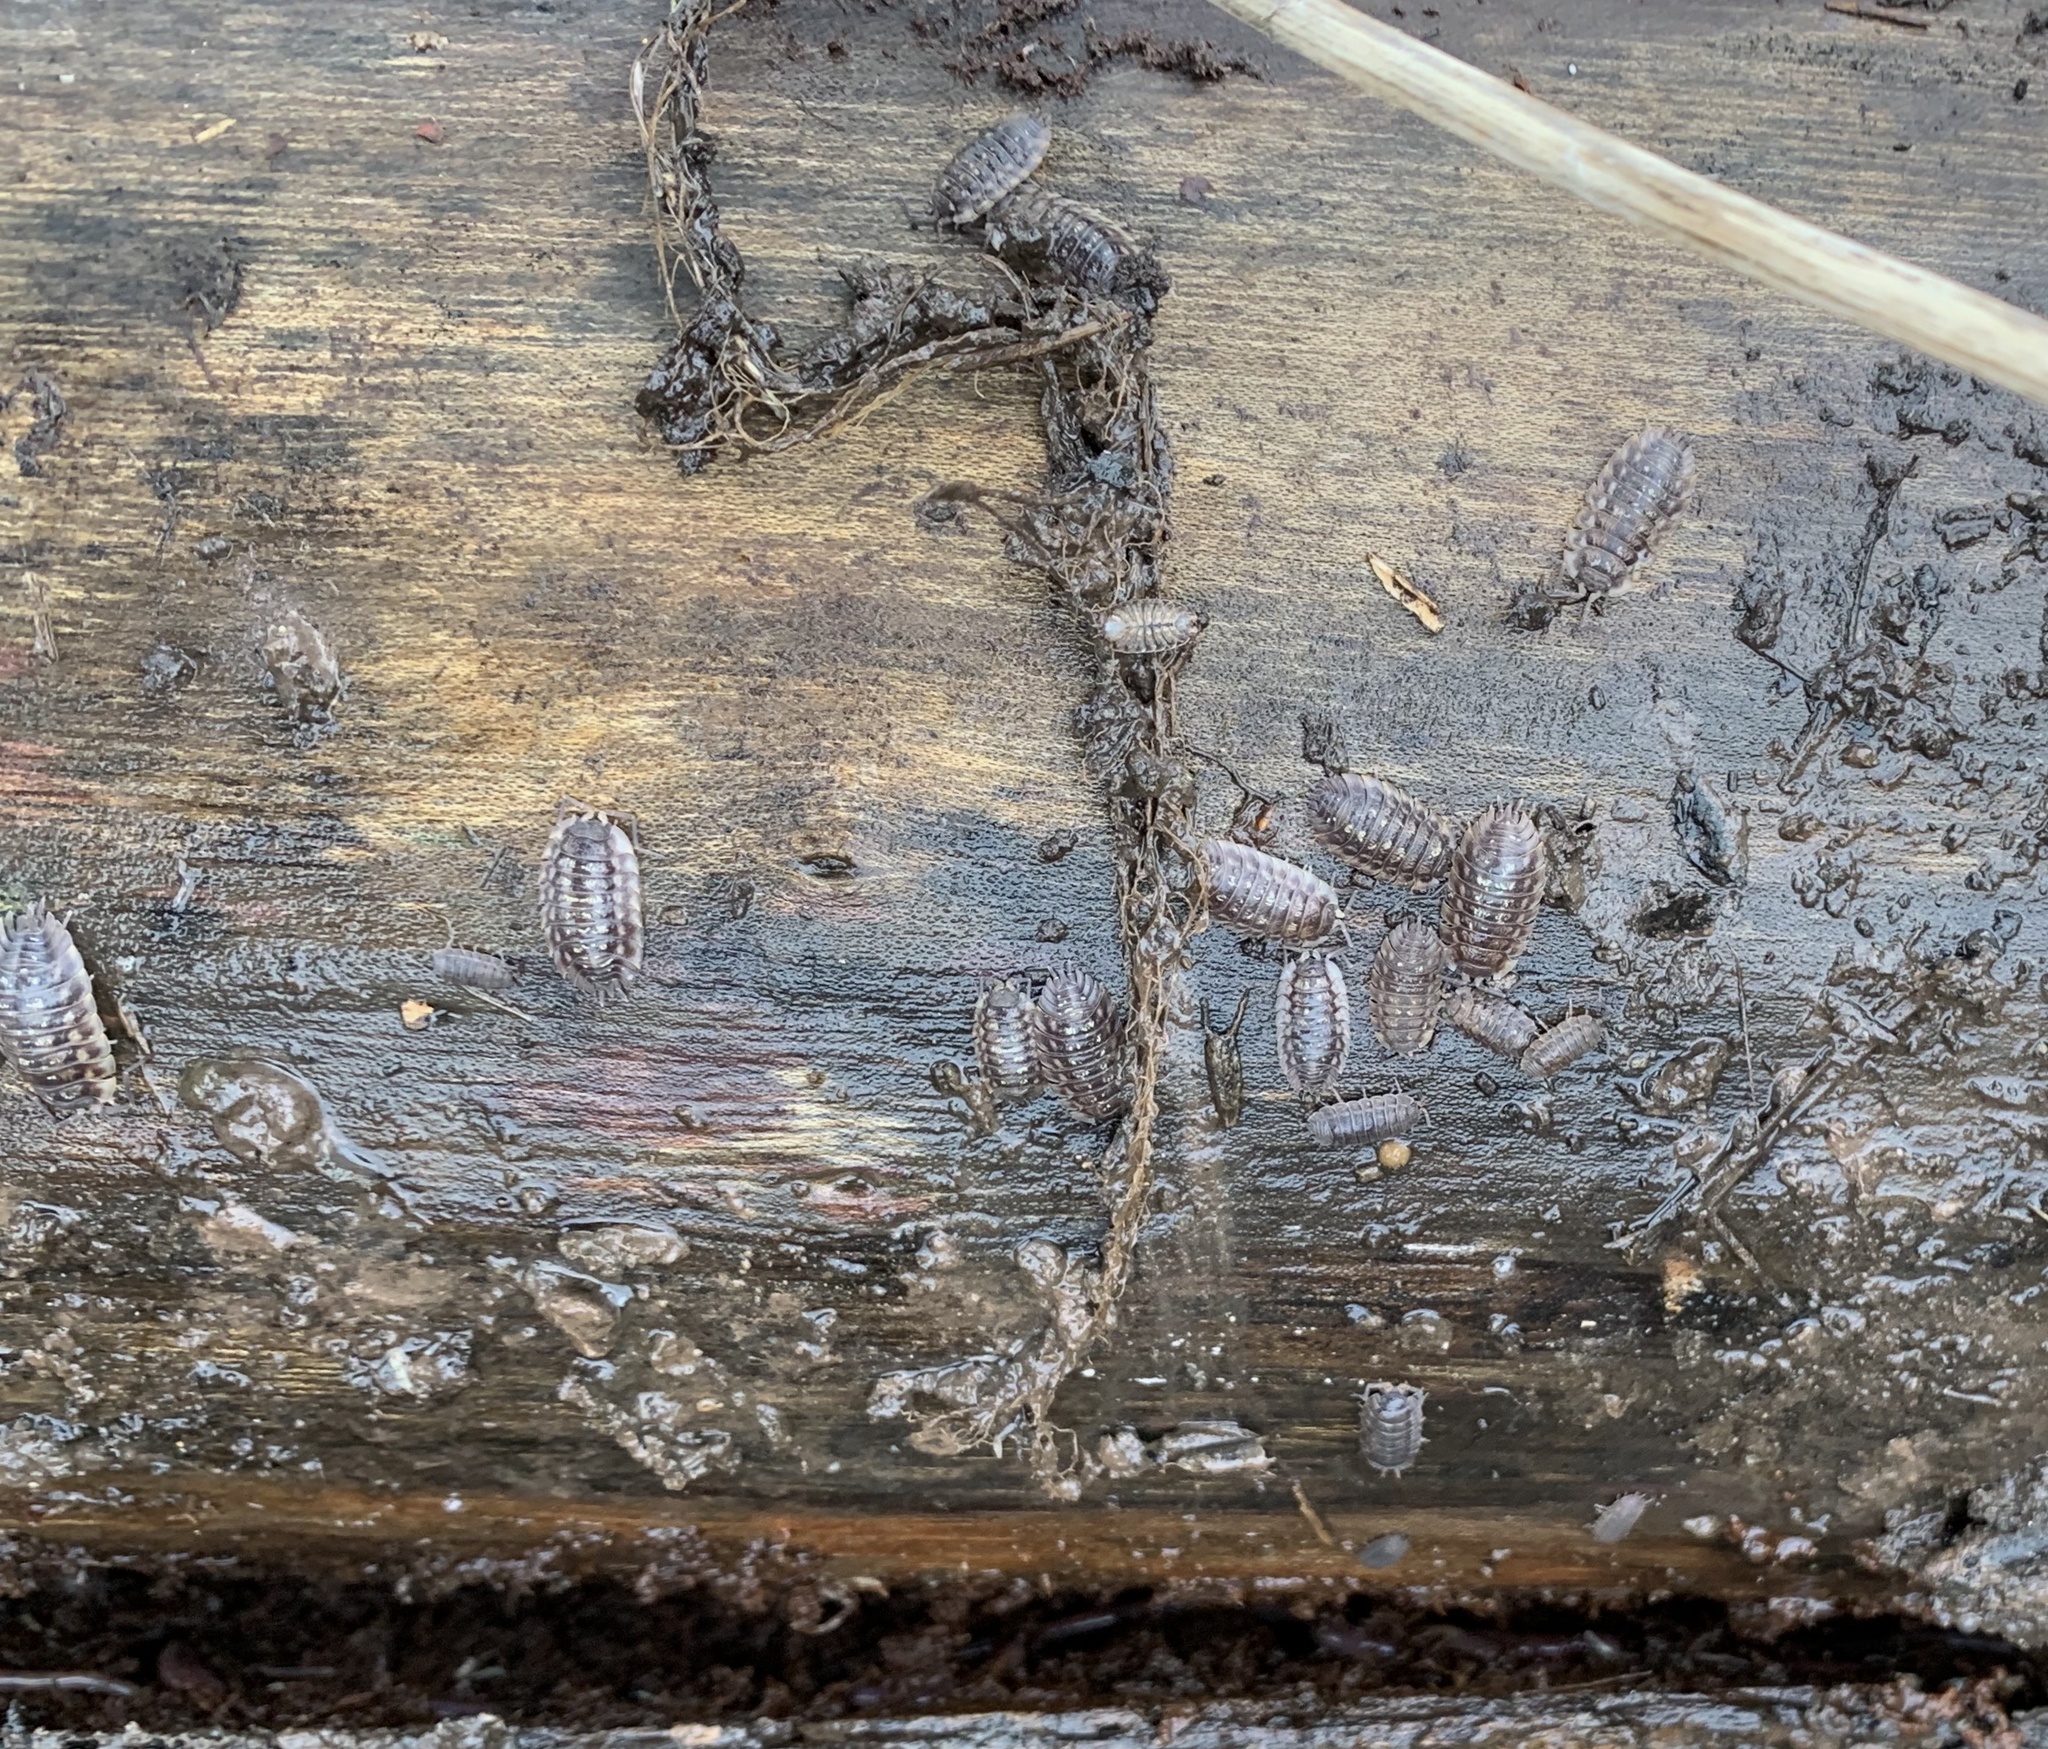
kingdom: Animalia
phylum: Arthropoda
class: Malacostraca
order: Isopoda
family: Oniscidae
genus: Oniscus
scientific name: Oniscus asellus
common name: Common shiny woodlouse
